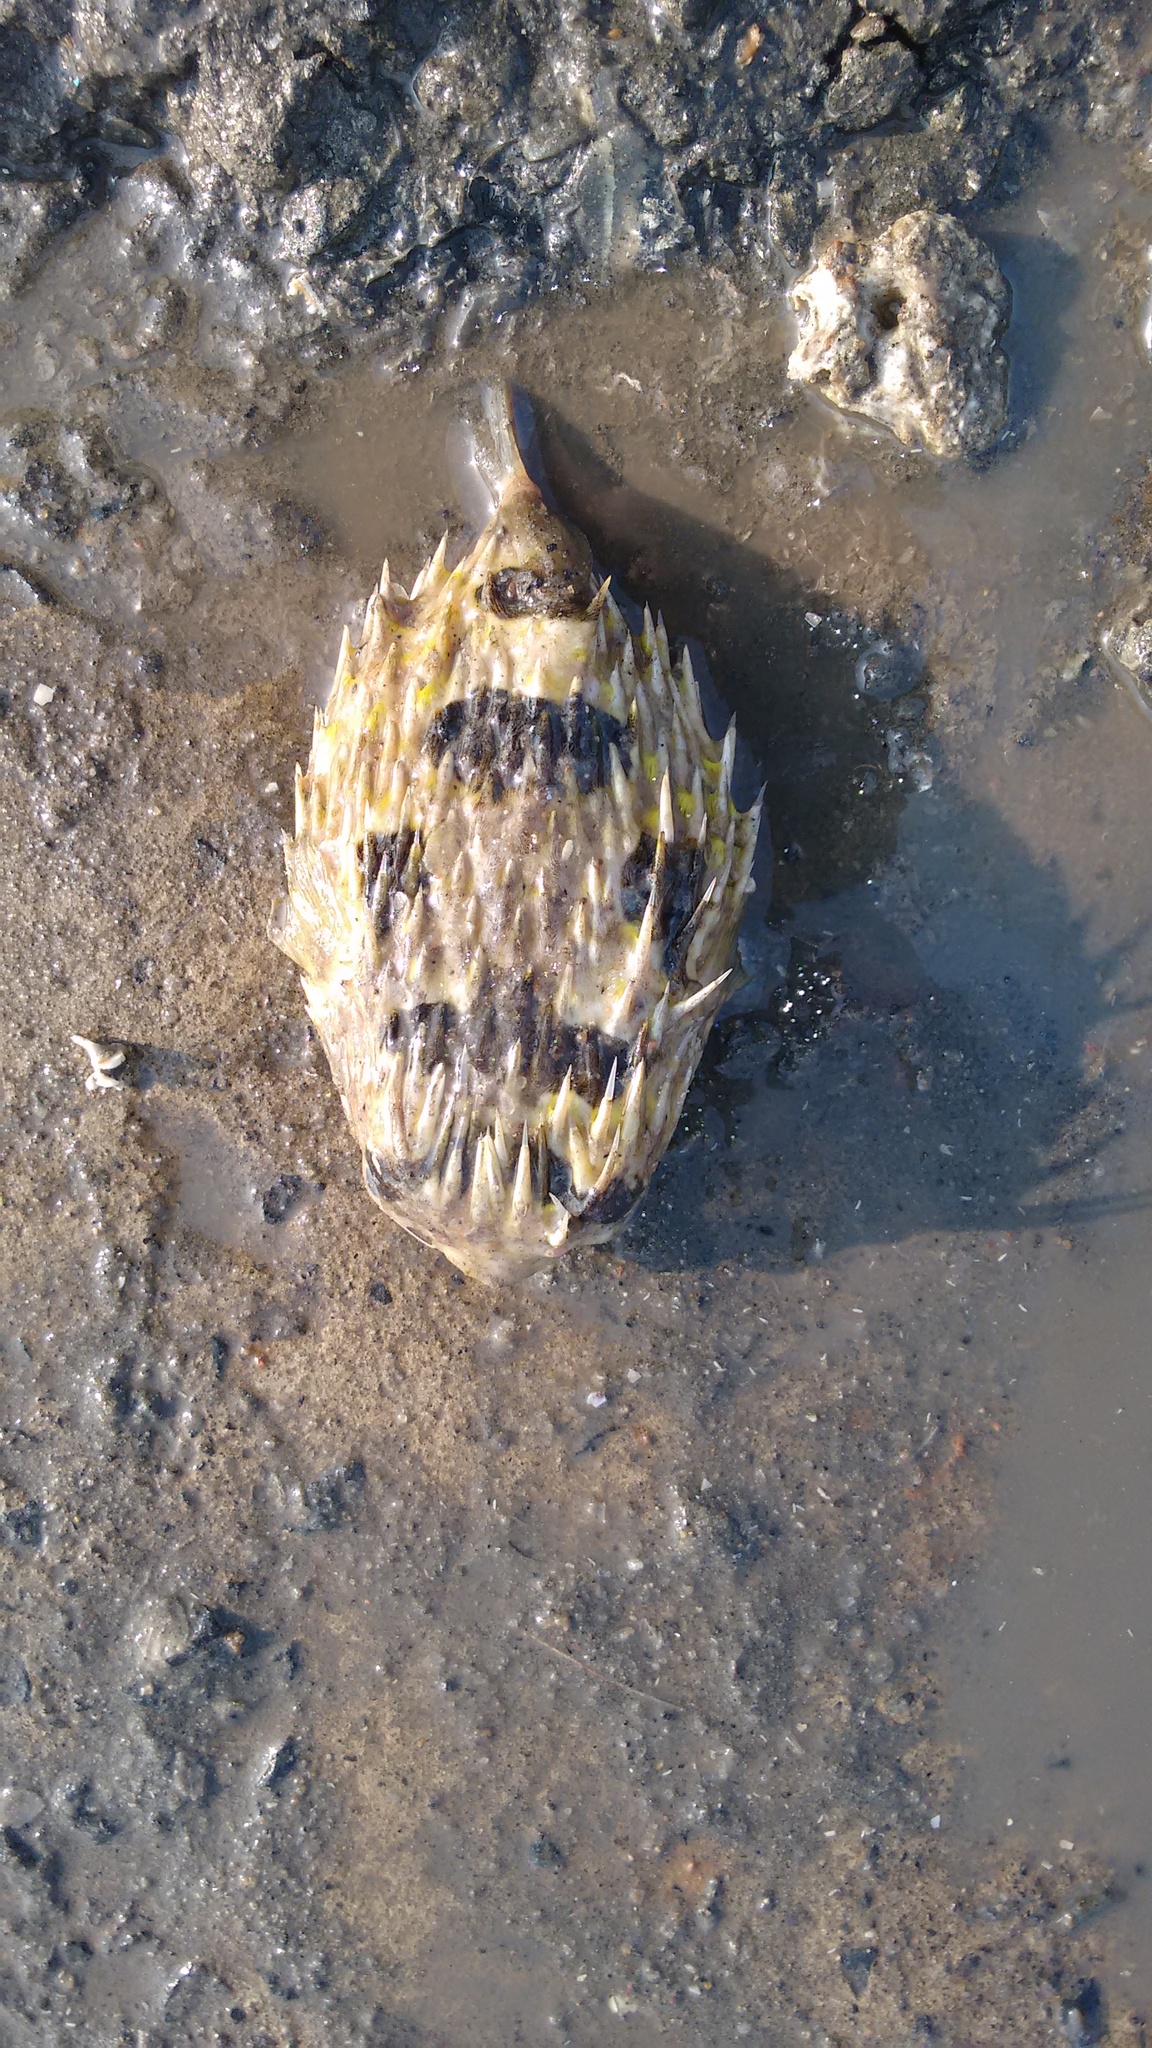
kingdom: Animalia
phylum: Chordata
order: Tetraodontiformes
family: Diodontidae
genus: Diodon
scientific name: Diodon holocanthus
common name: Balloonfish
